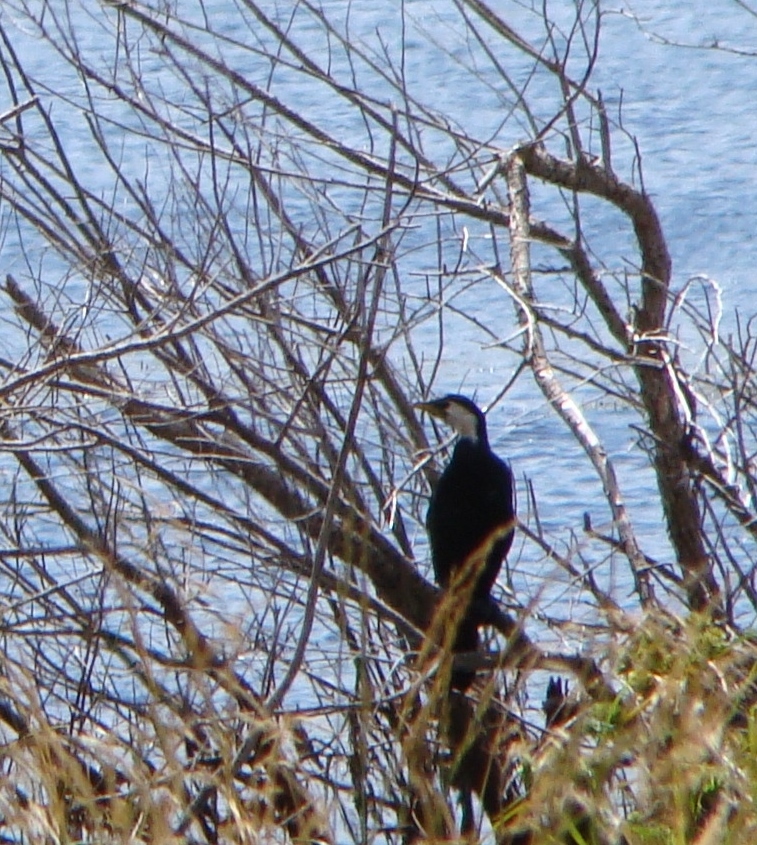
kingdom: Animalia
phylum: Chordata
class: Aves
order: Suliformes
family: Phalacrocoracidae
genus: Microcarbo
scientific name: Microcarbo melanoleucos
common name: Little pied cormorant
